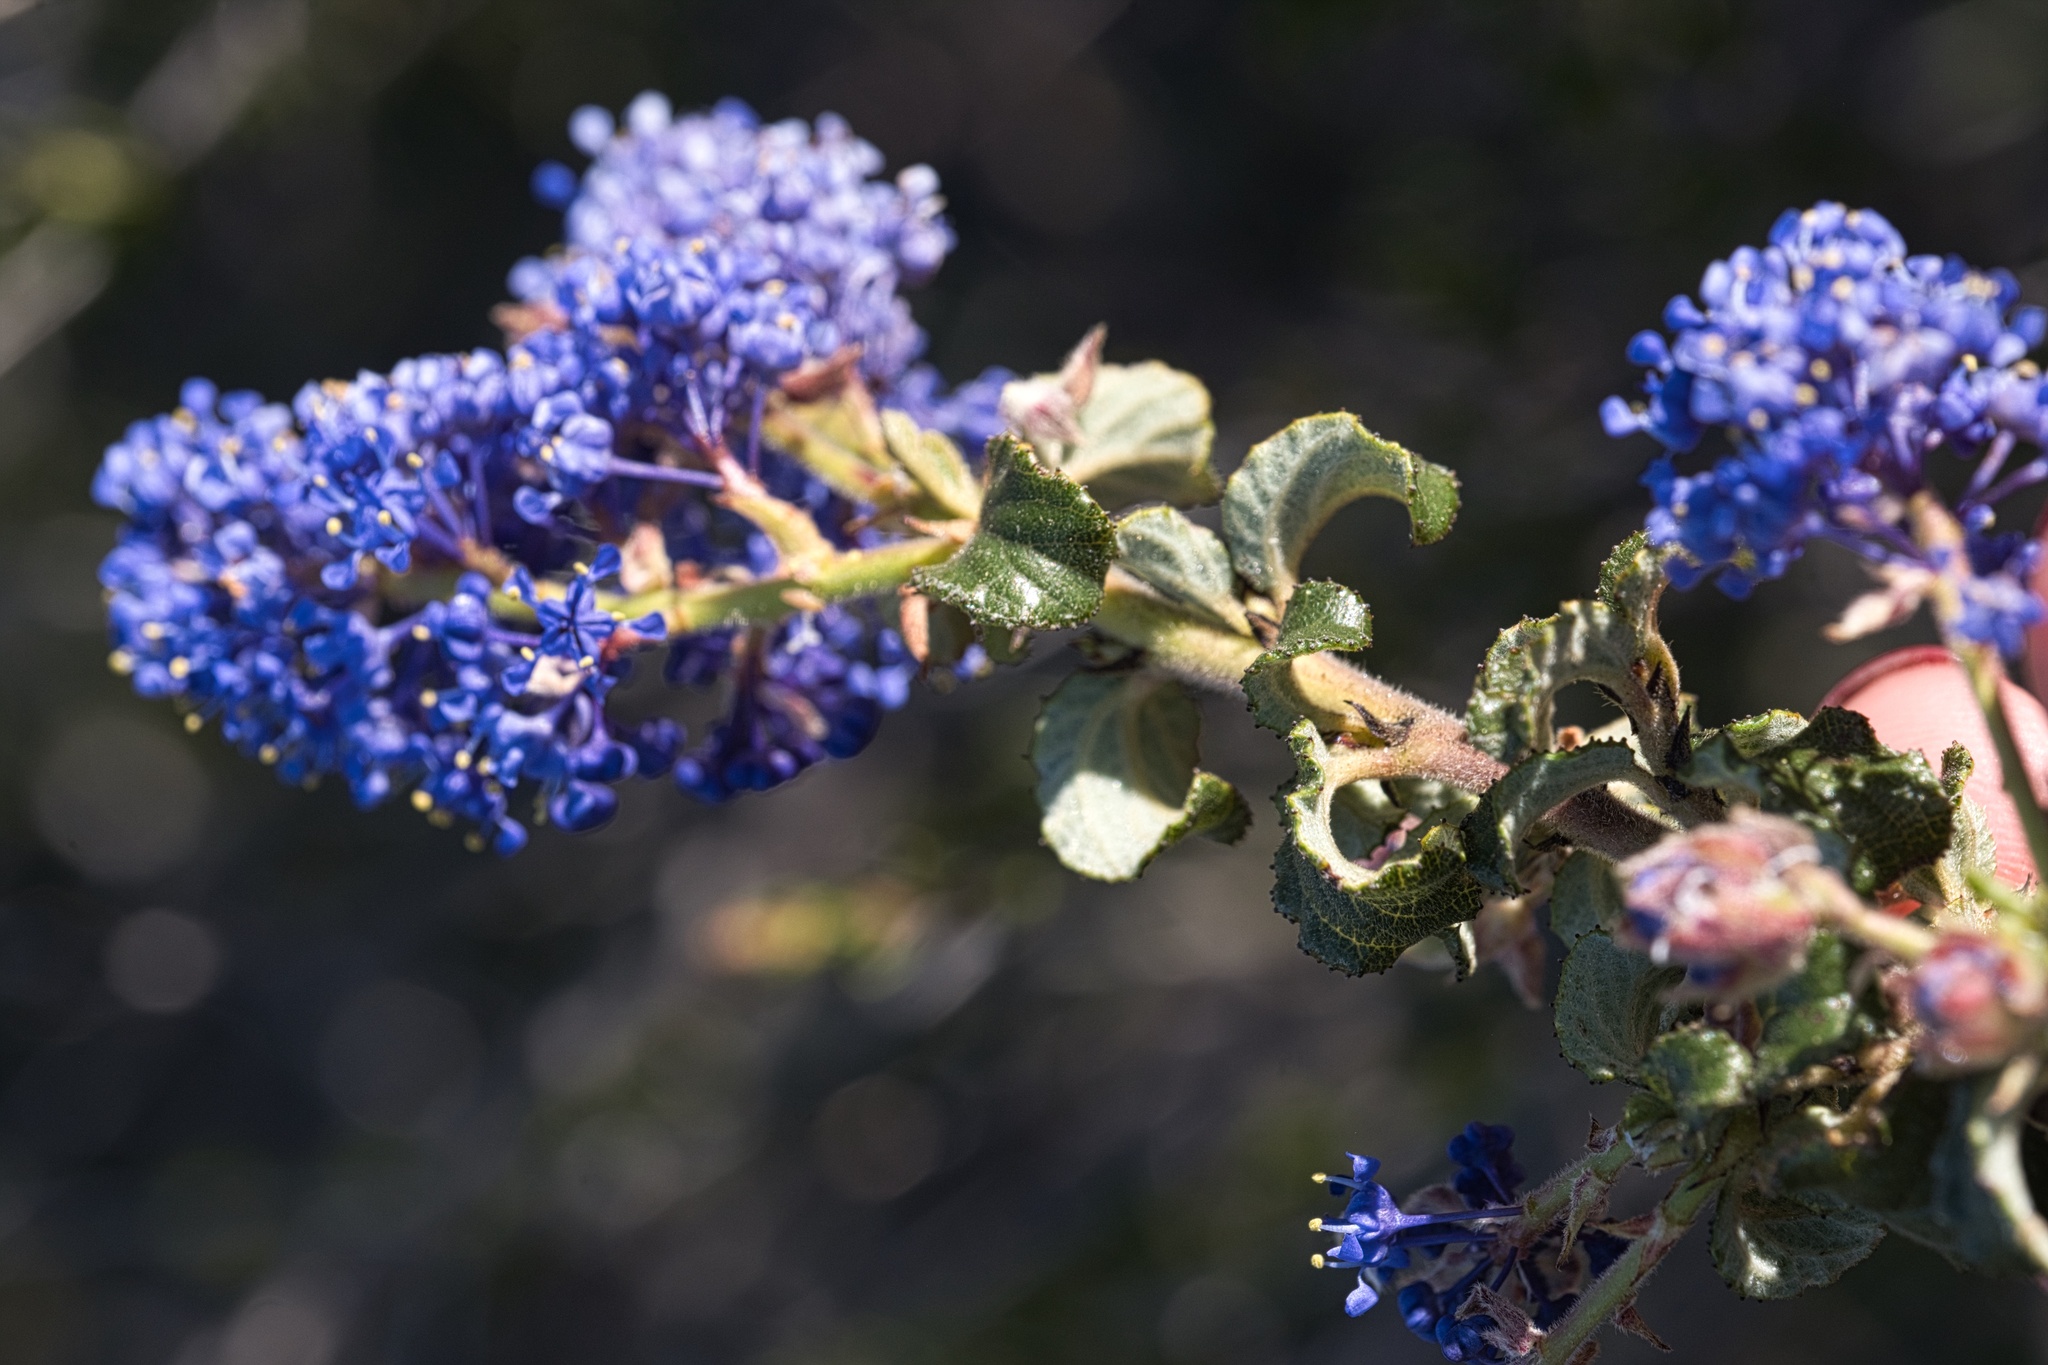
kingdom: Plantae
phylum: Tracheophyta
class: Magnoliopsida
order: Rosales
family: Rhamnaceae
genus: Ceanothus
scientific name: Ceanothus foliosus
